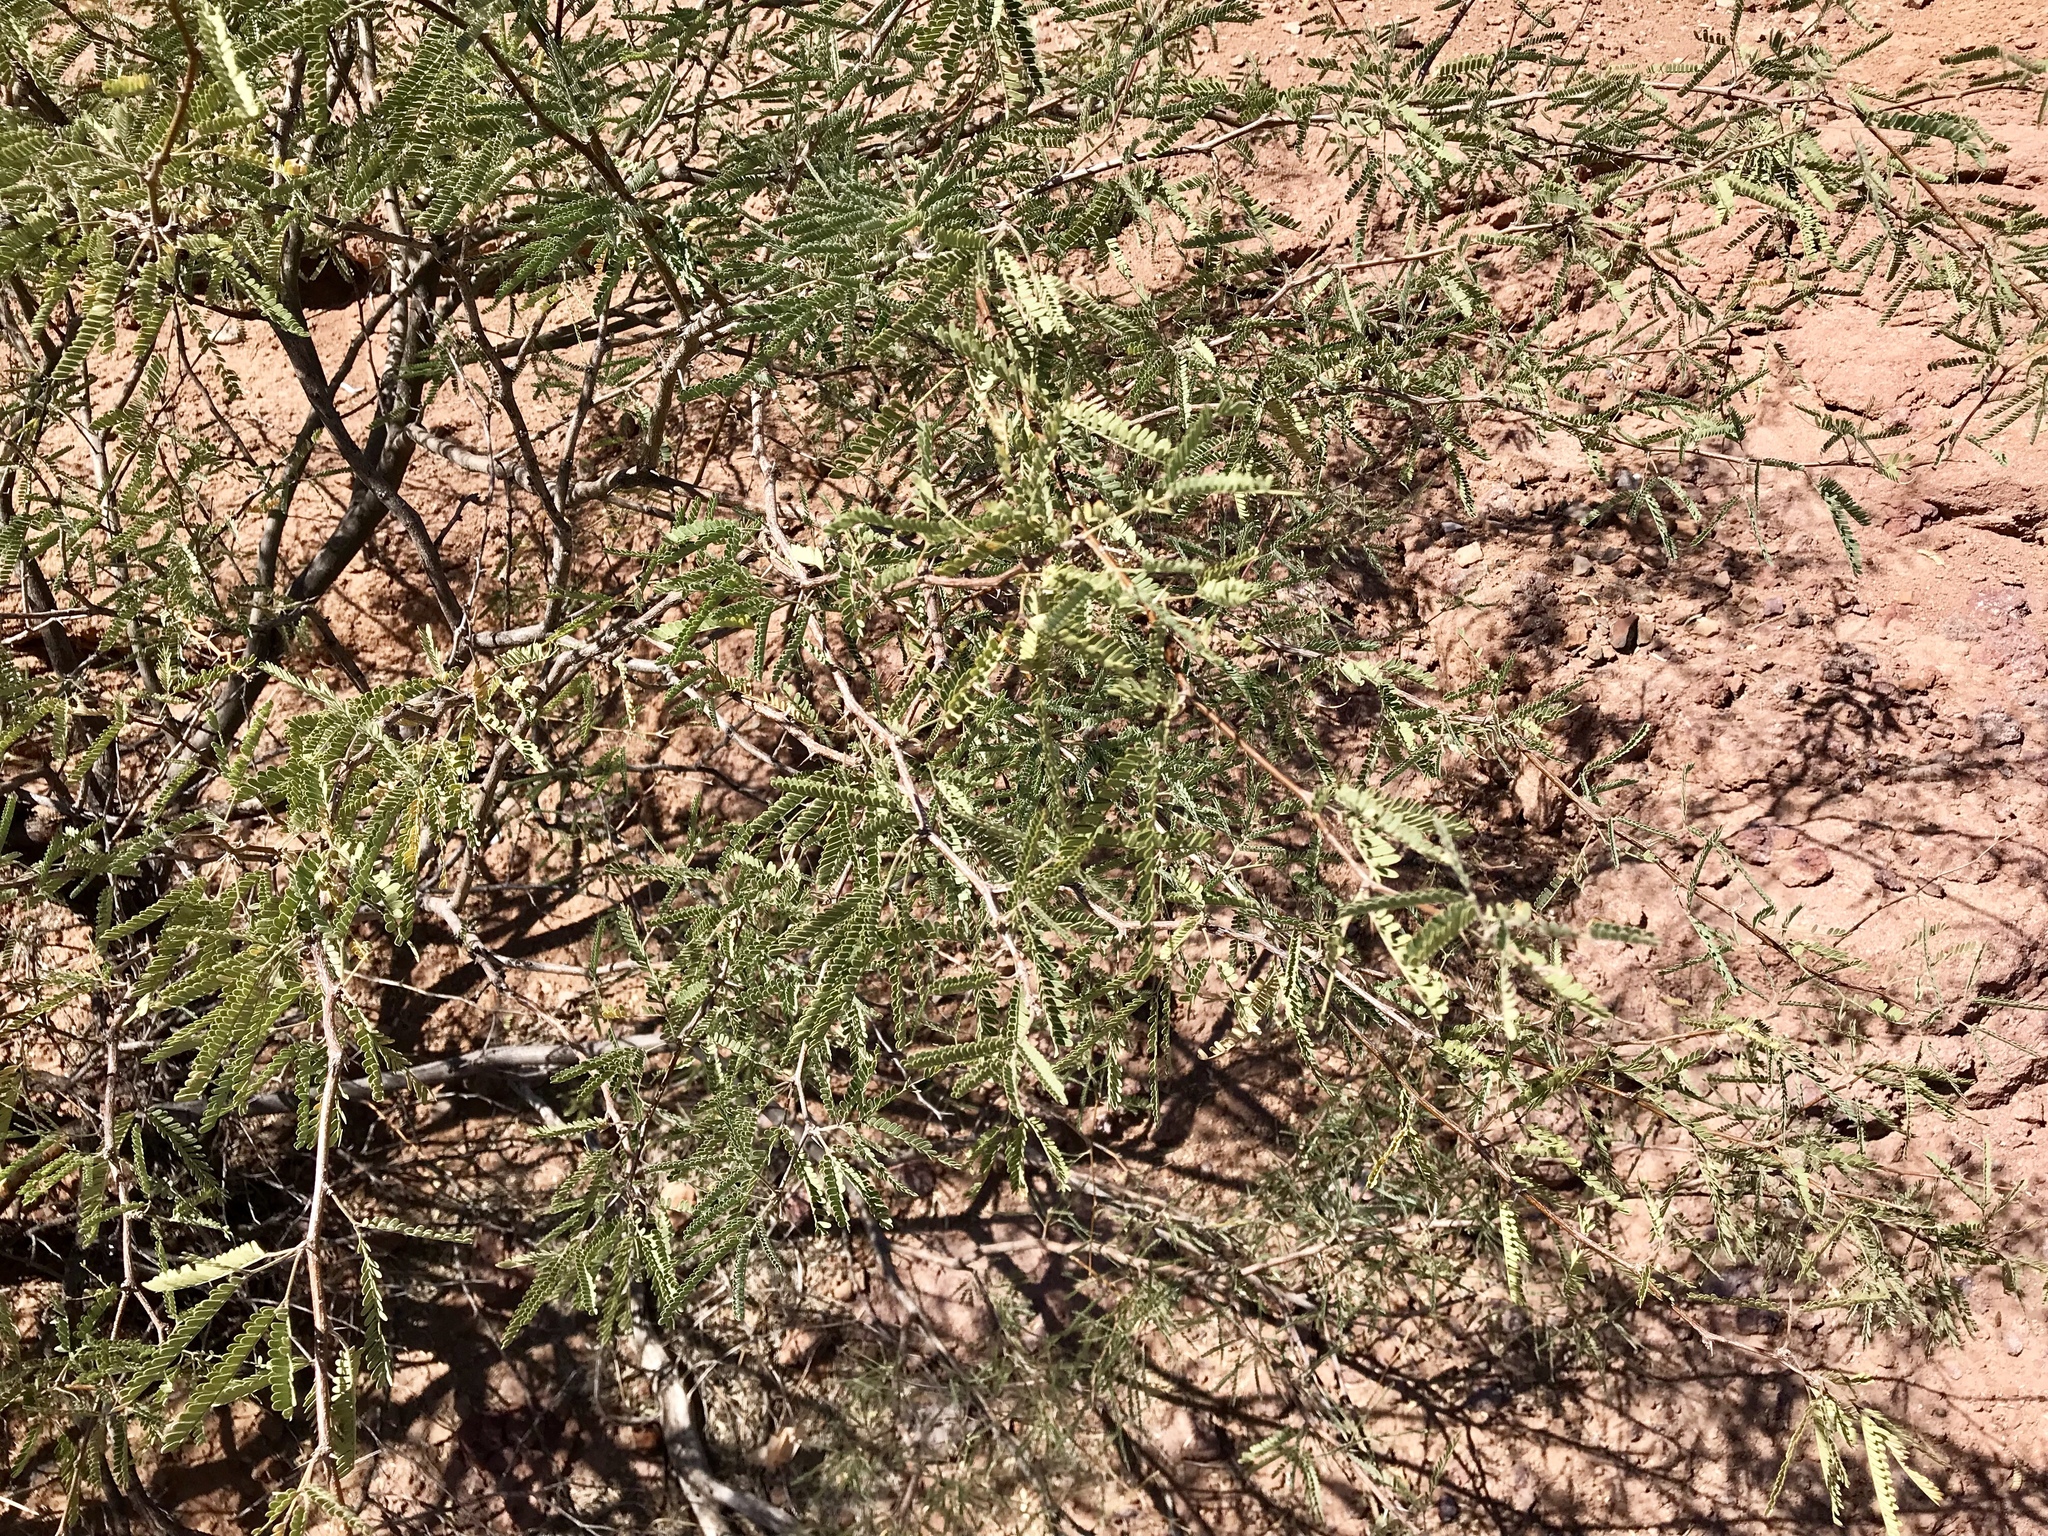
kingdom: Plantae
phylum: Tracheophyta
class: Magnoliopsida
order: Fabales
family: Fabaceae
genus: Prosopis
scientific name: Prosopis velutina
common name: Velvet mesquite
